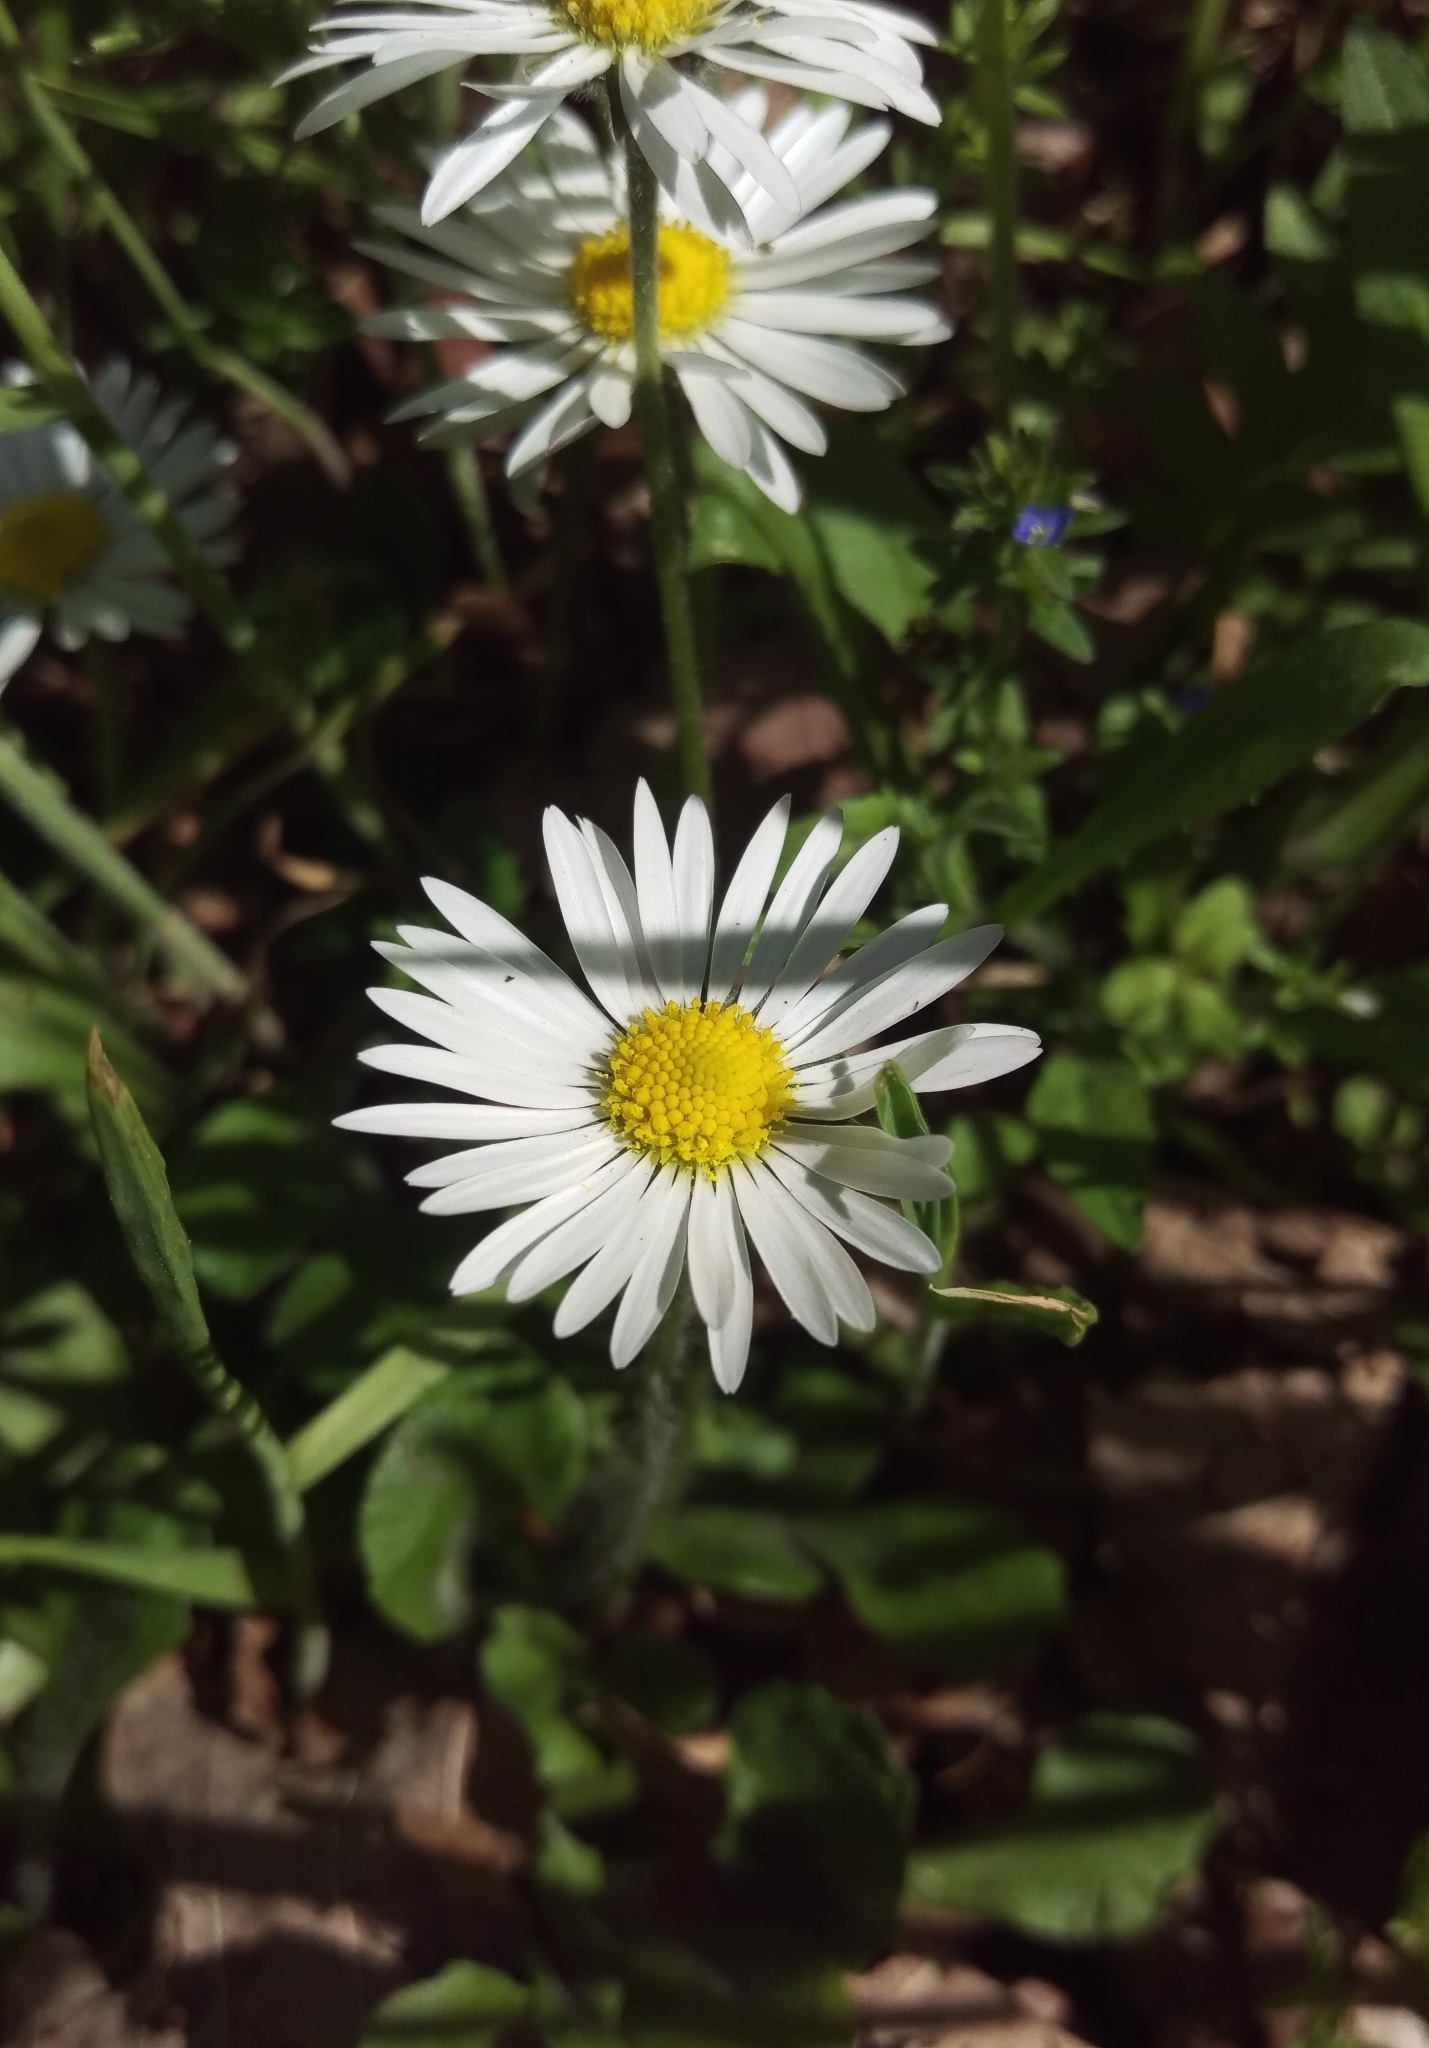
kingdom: Plantae
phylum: Tracheophyta
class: Magnoliopsida
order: Asterales
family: Asteraceae
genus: Bellis
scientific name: Bellis perennis
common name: Lawndaisy
